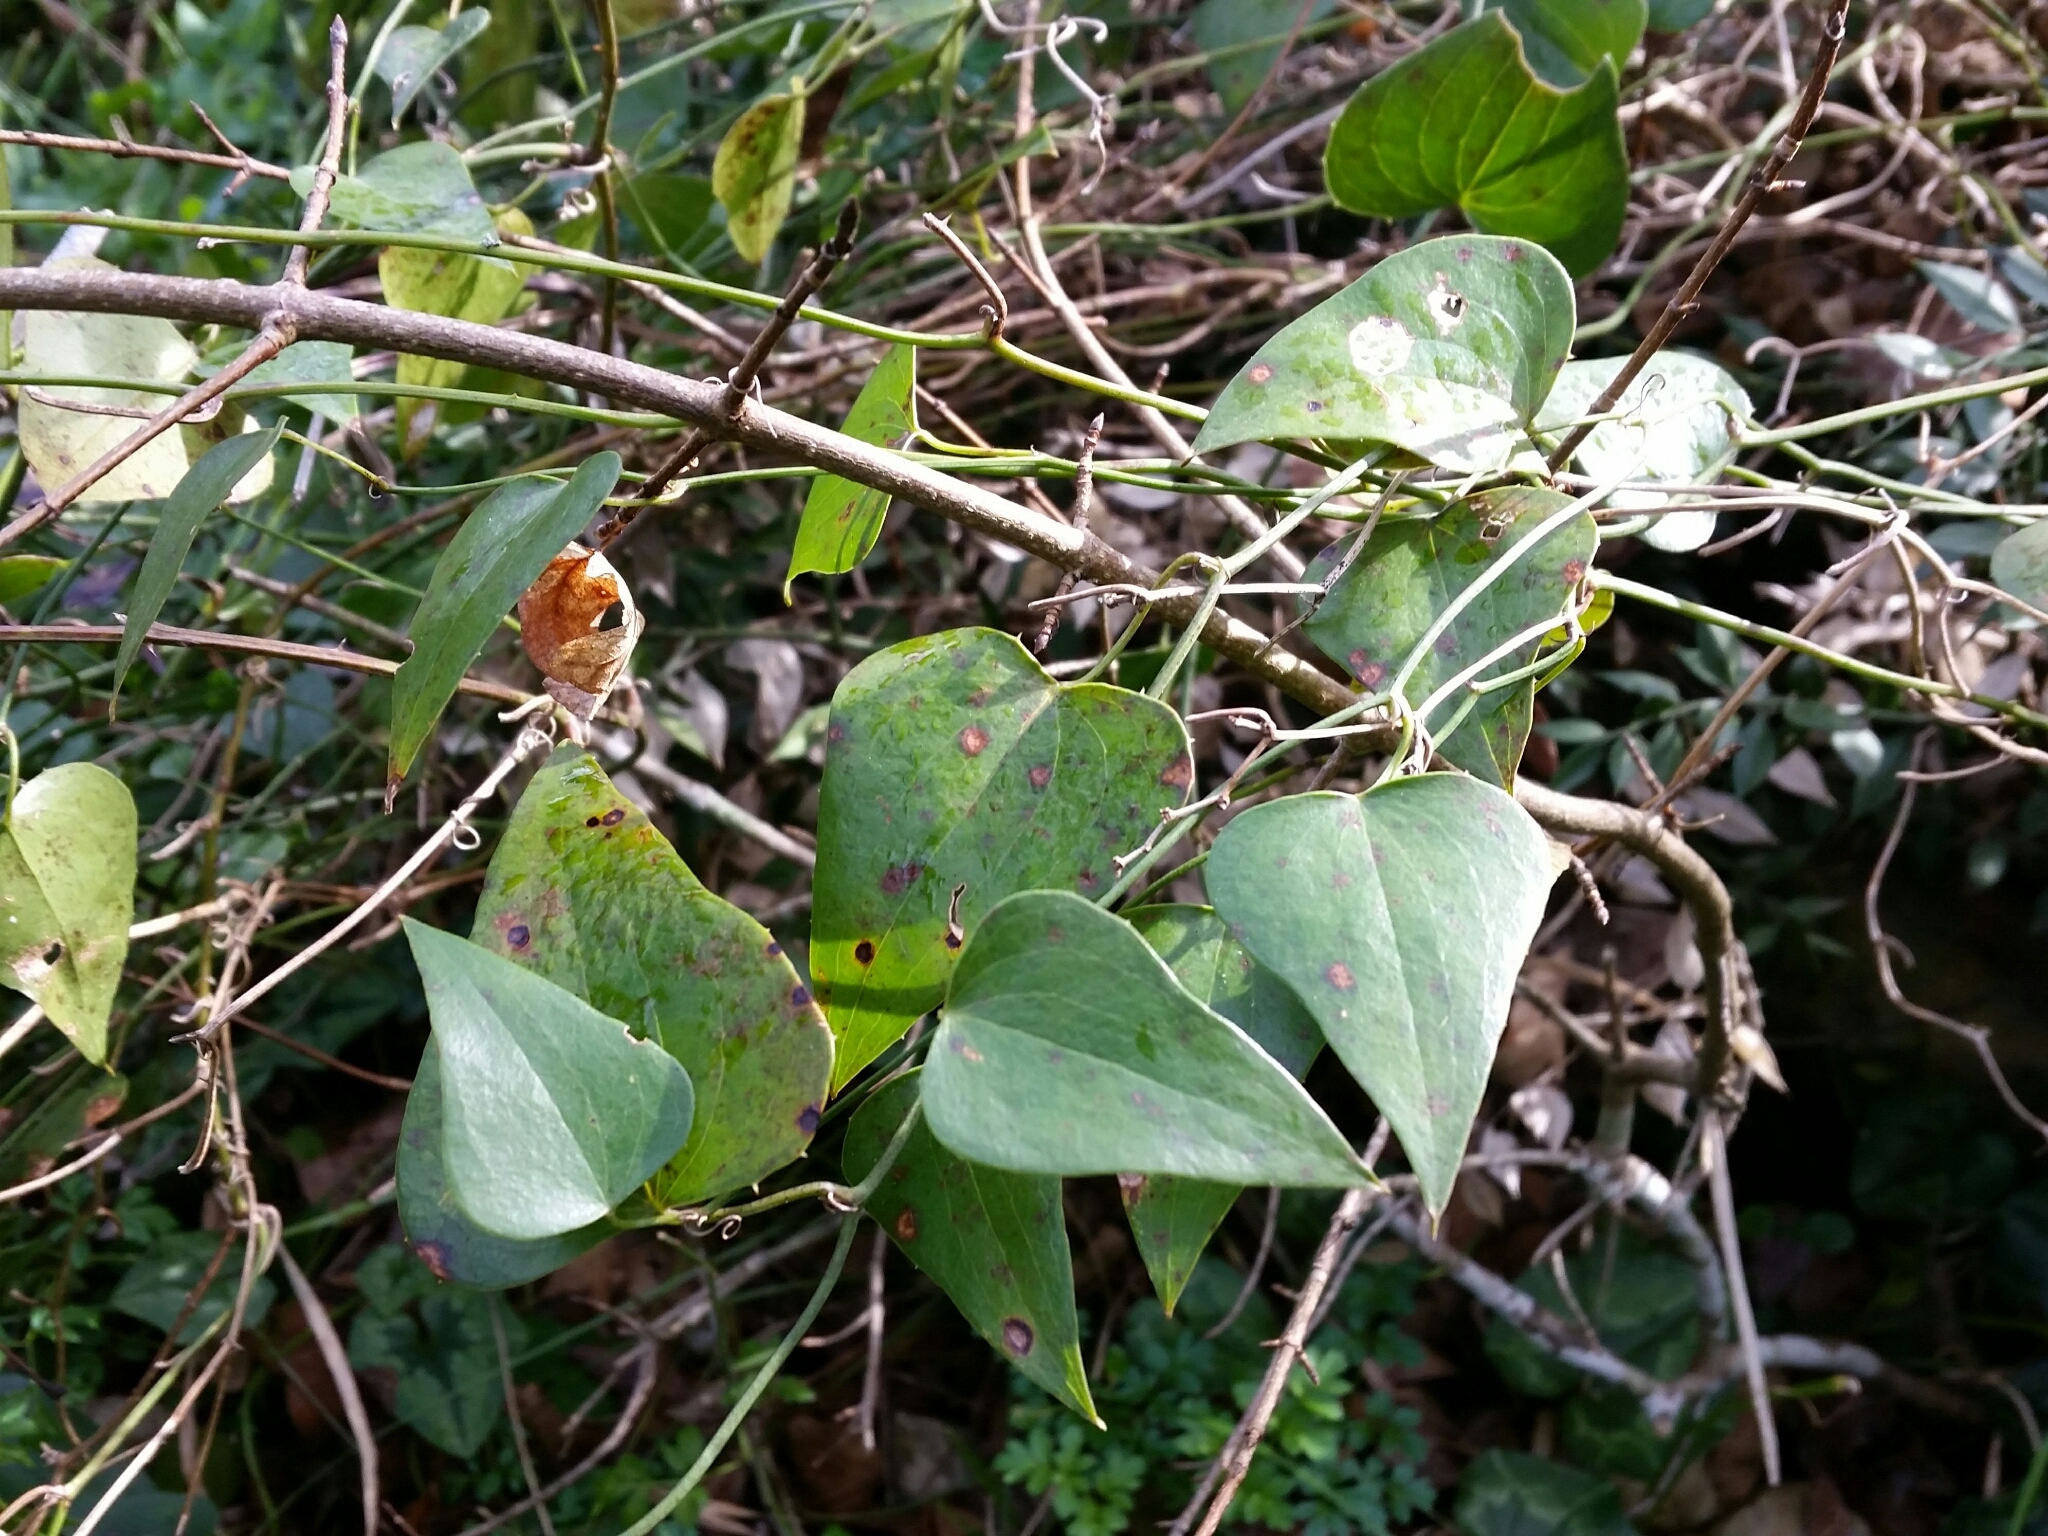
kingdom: Plantae
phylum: Tracheophyta
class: Liliopsida
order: Liliales
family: Smilacaceae
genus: Smilax
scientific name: Smilax aspera
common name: Common smilax
